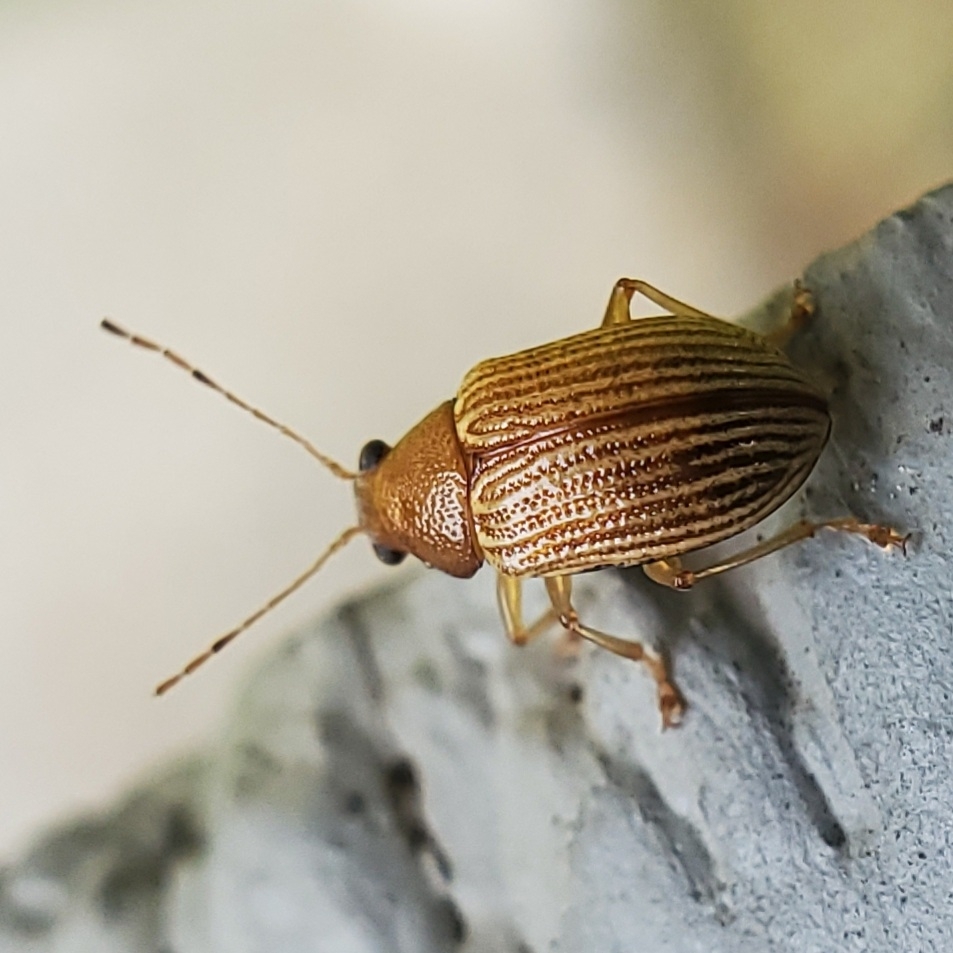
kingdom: Animalia
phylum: Arthropoda
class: Insecta
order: Coleoptera
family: Chrysomelidae
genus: Colaspis
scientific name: Colaspis brunnea
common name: Grape colaspis
